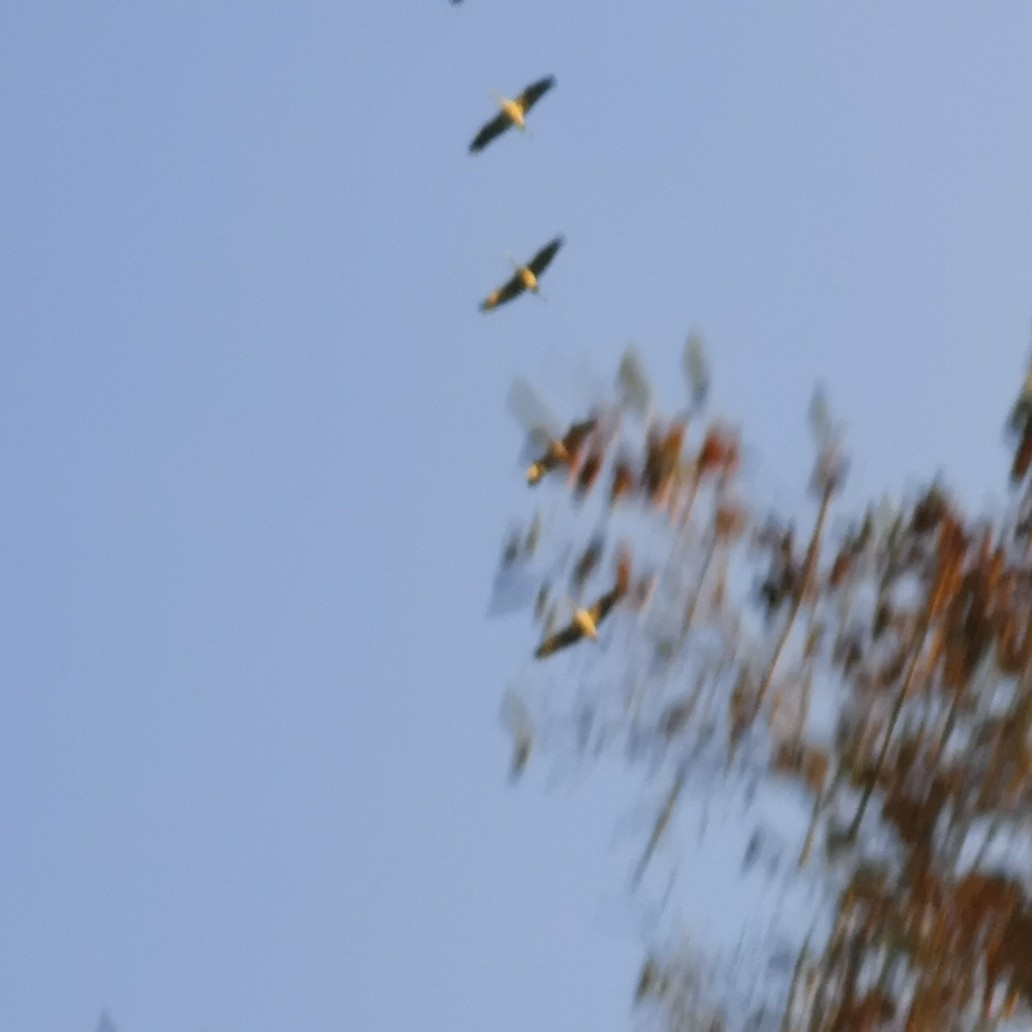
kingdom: Animalia
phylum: Chordata
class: Aves
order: Gruiformes
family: Gruidae
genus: Grus
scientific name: Grus grus
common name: Common crane
